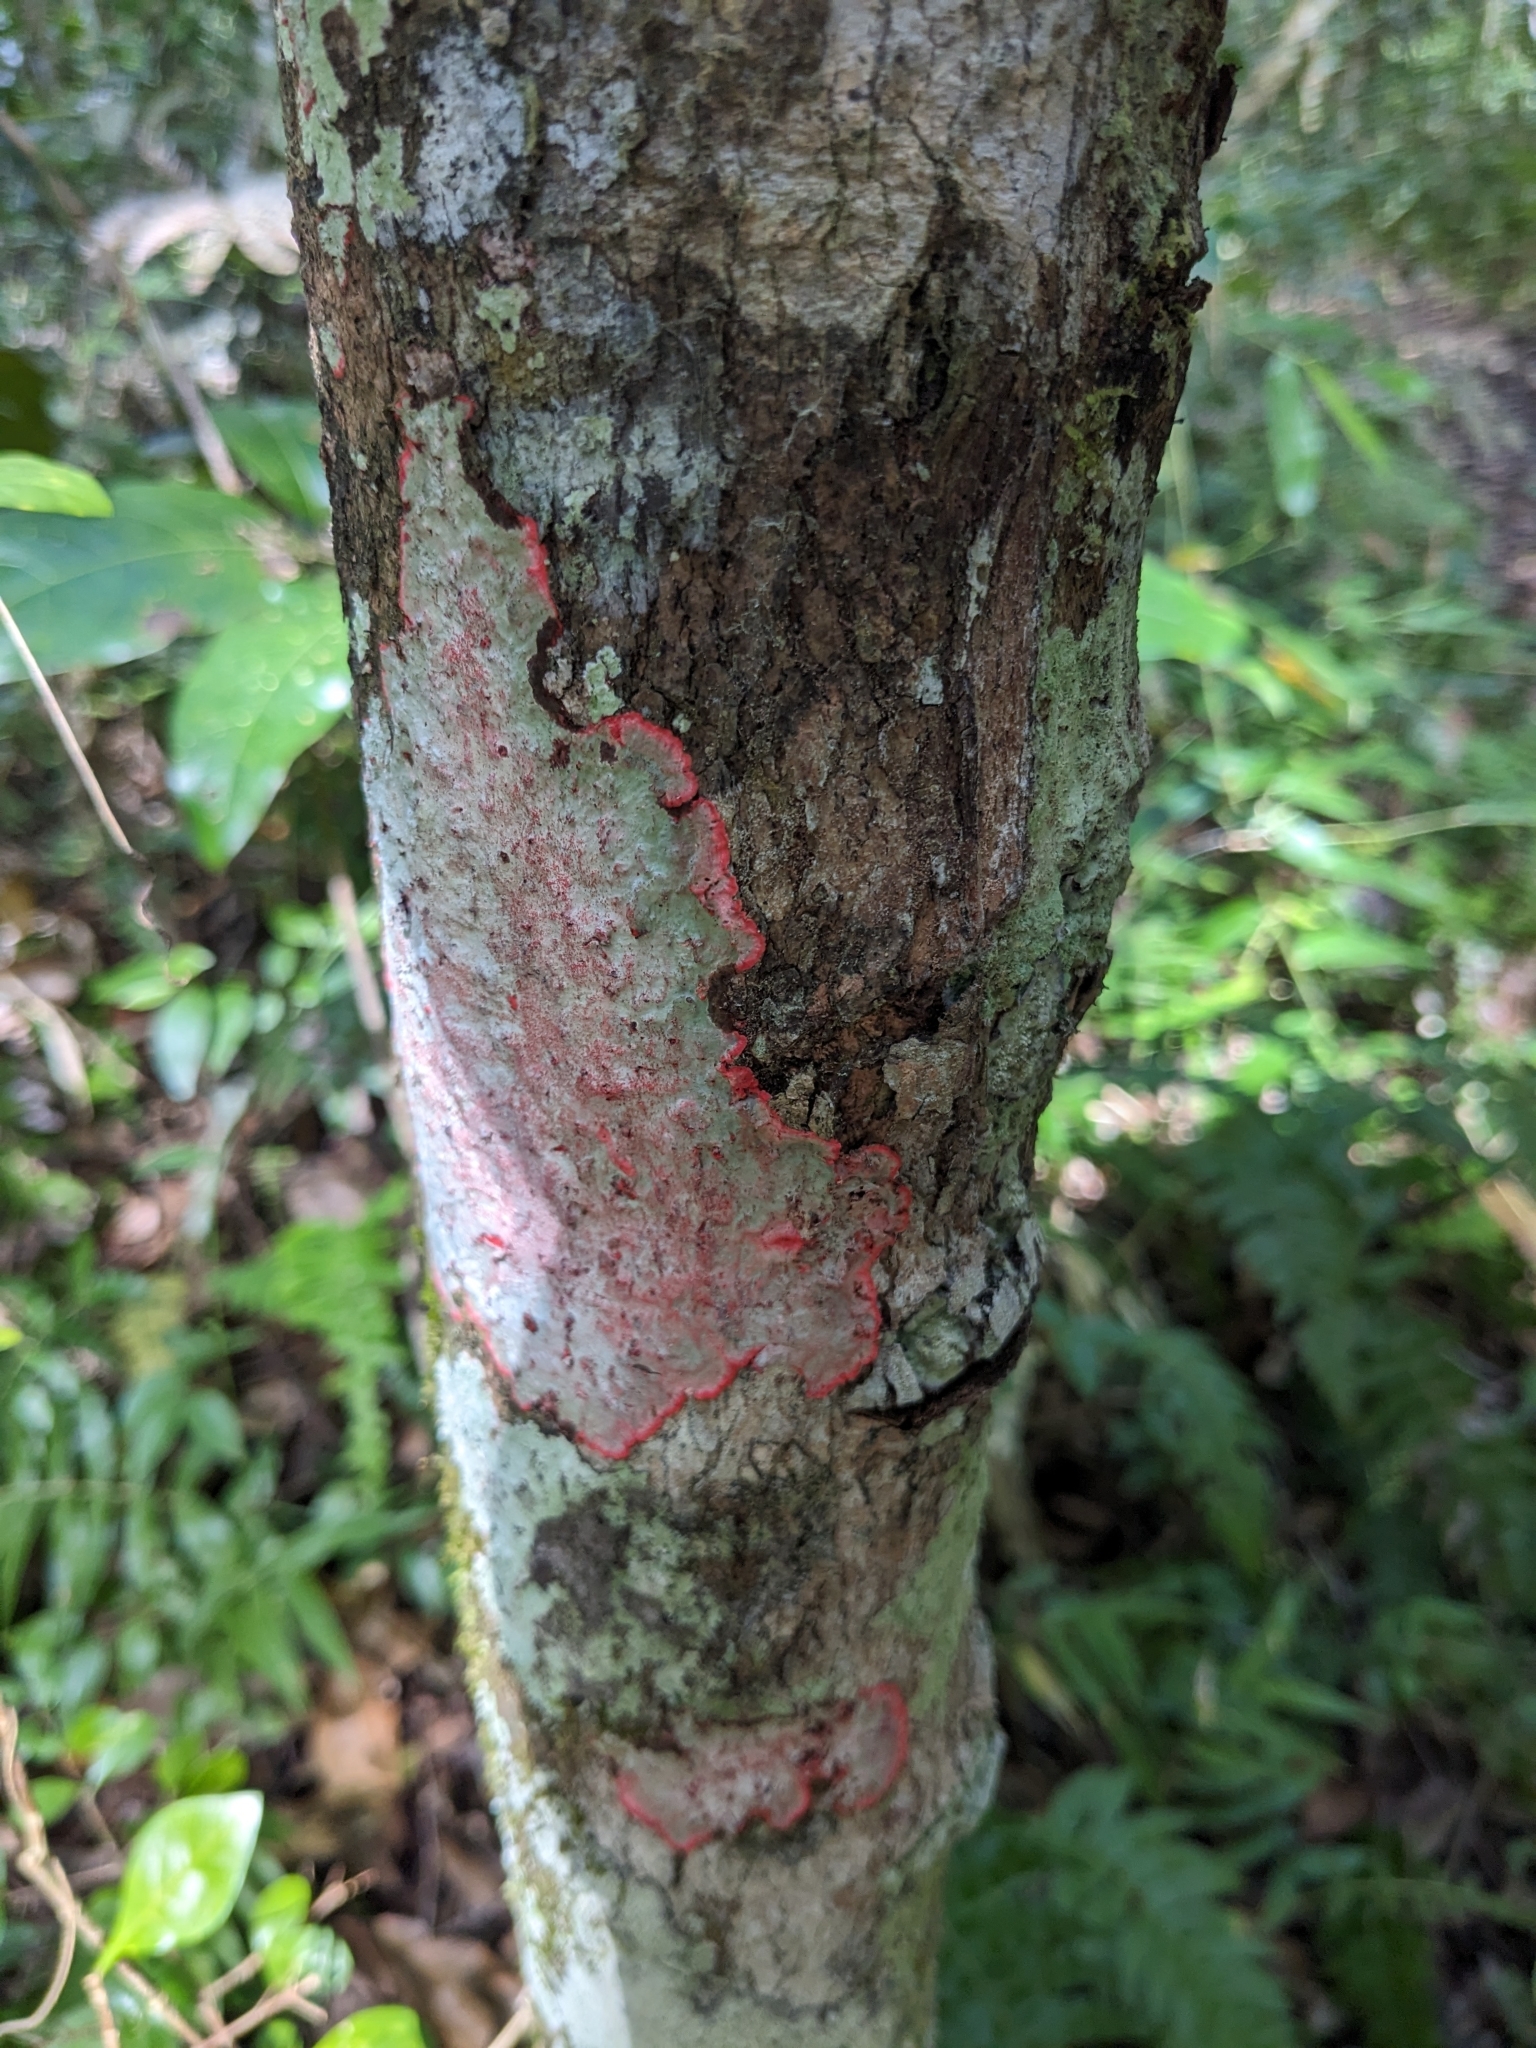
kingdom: Fungi
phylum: Ascomycota
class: Arthoniomycetes
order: Arthoniales
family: Arthoniaceae
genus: Herpothallon
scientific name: Herpothallon rubrocinctum
